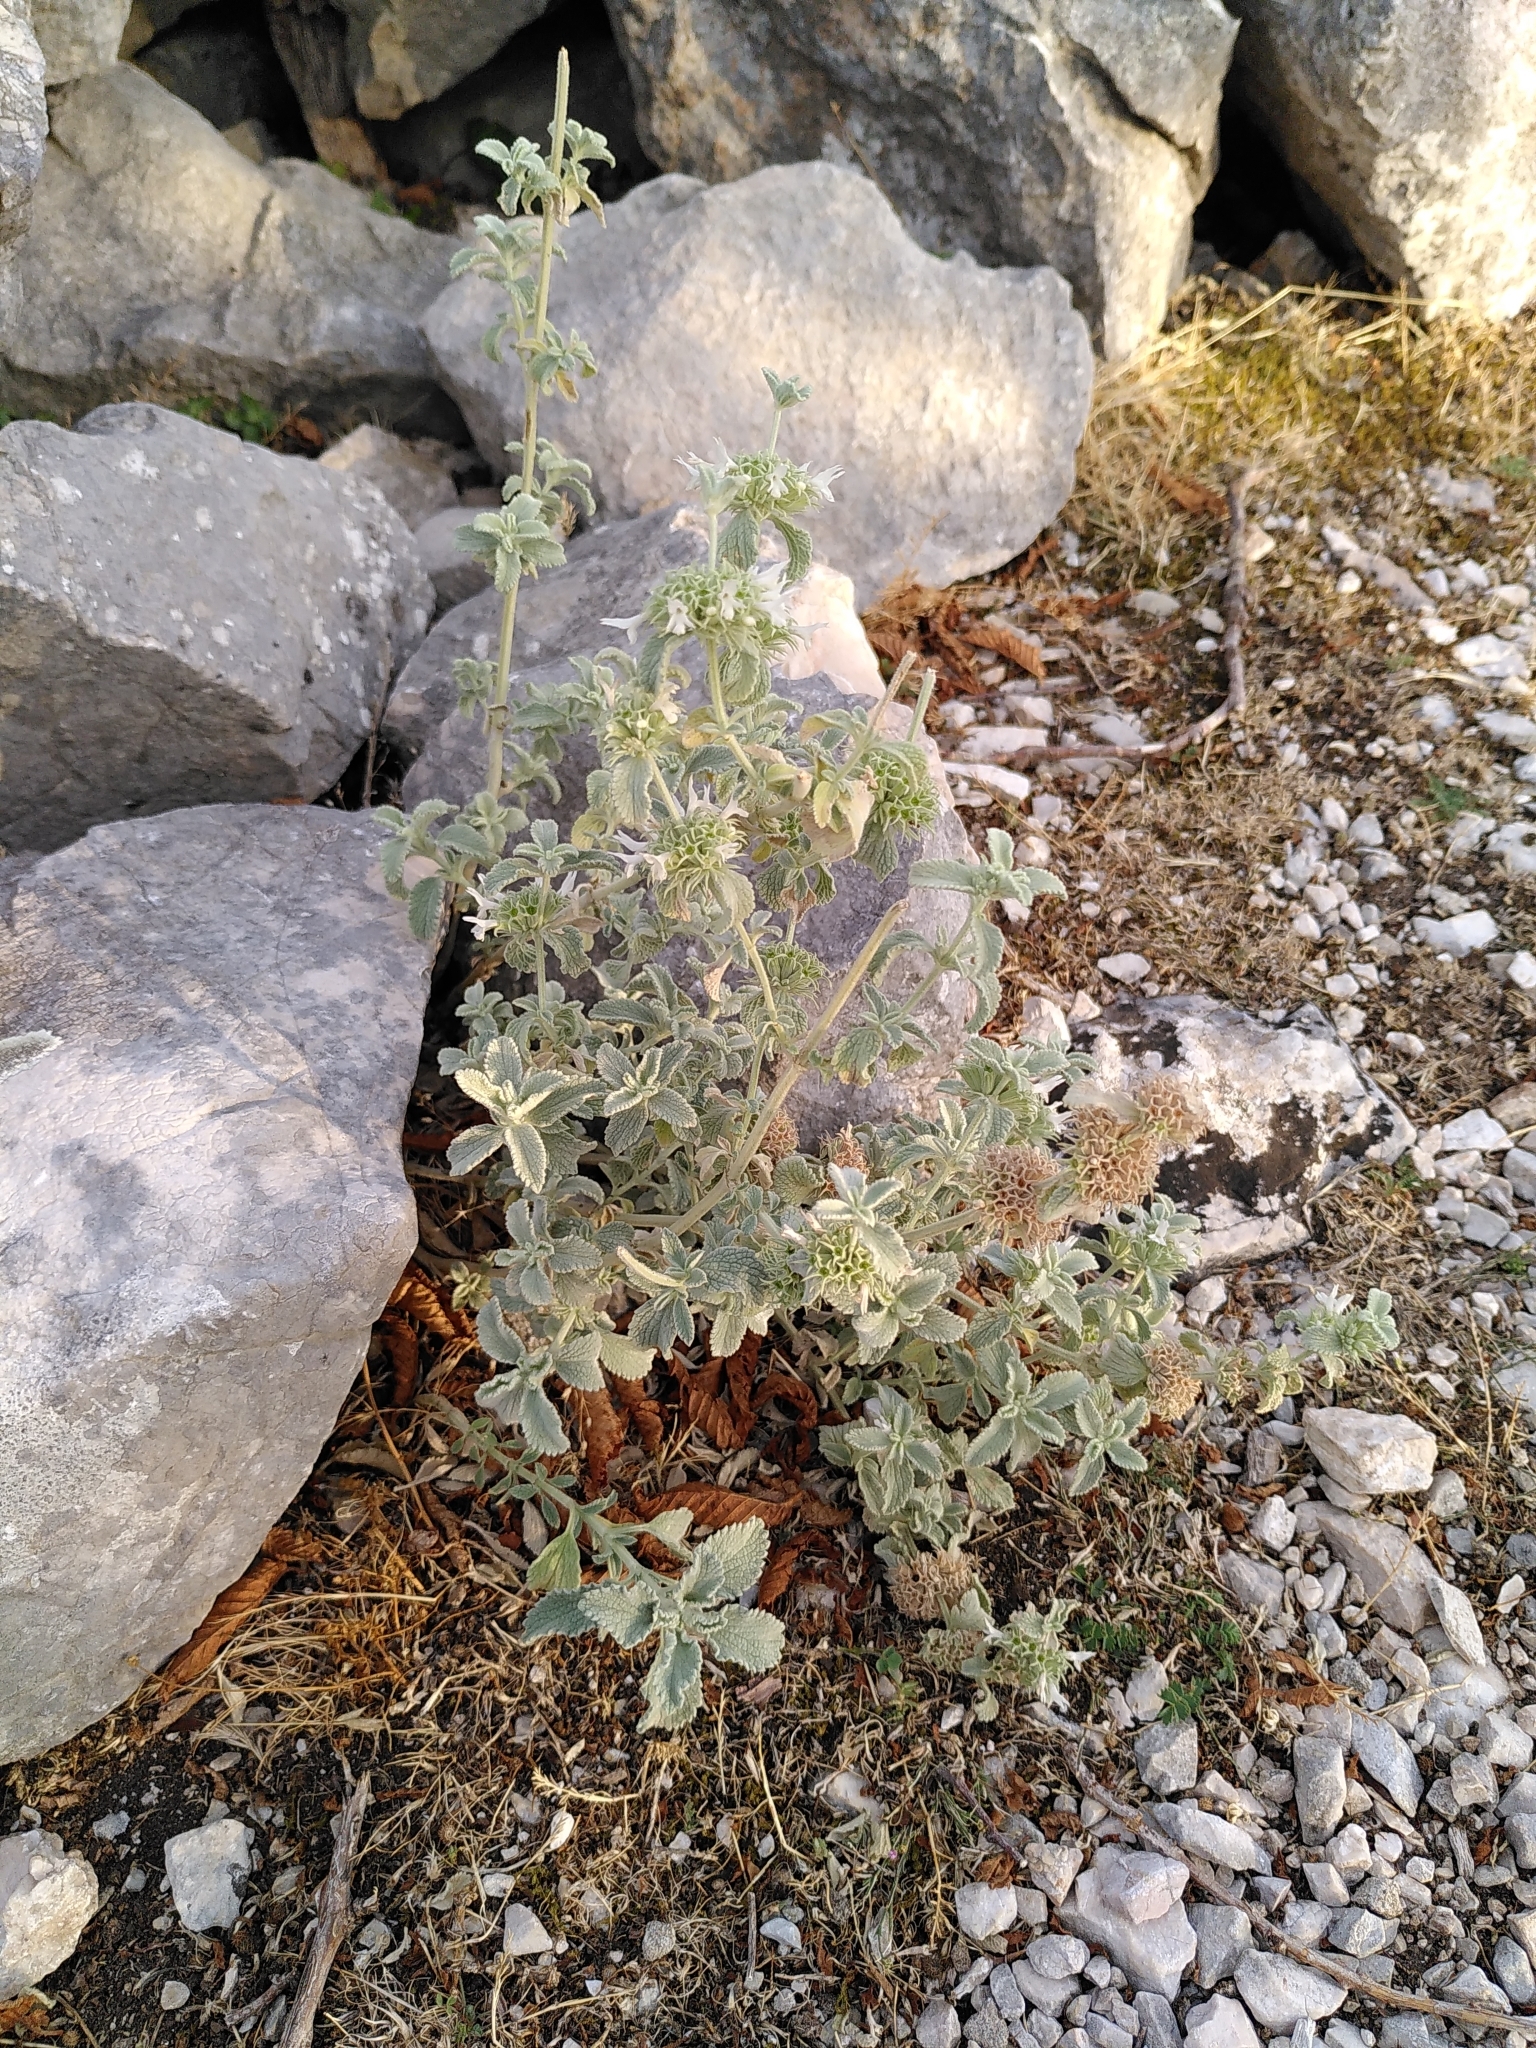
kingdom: Plantae
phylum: Tracheophyta
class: Magnoliopsida
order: Lamiales
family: Lamiaceae
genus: Marrubium
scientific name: Marrubium incanum
